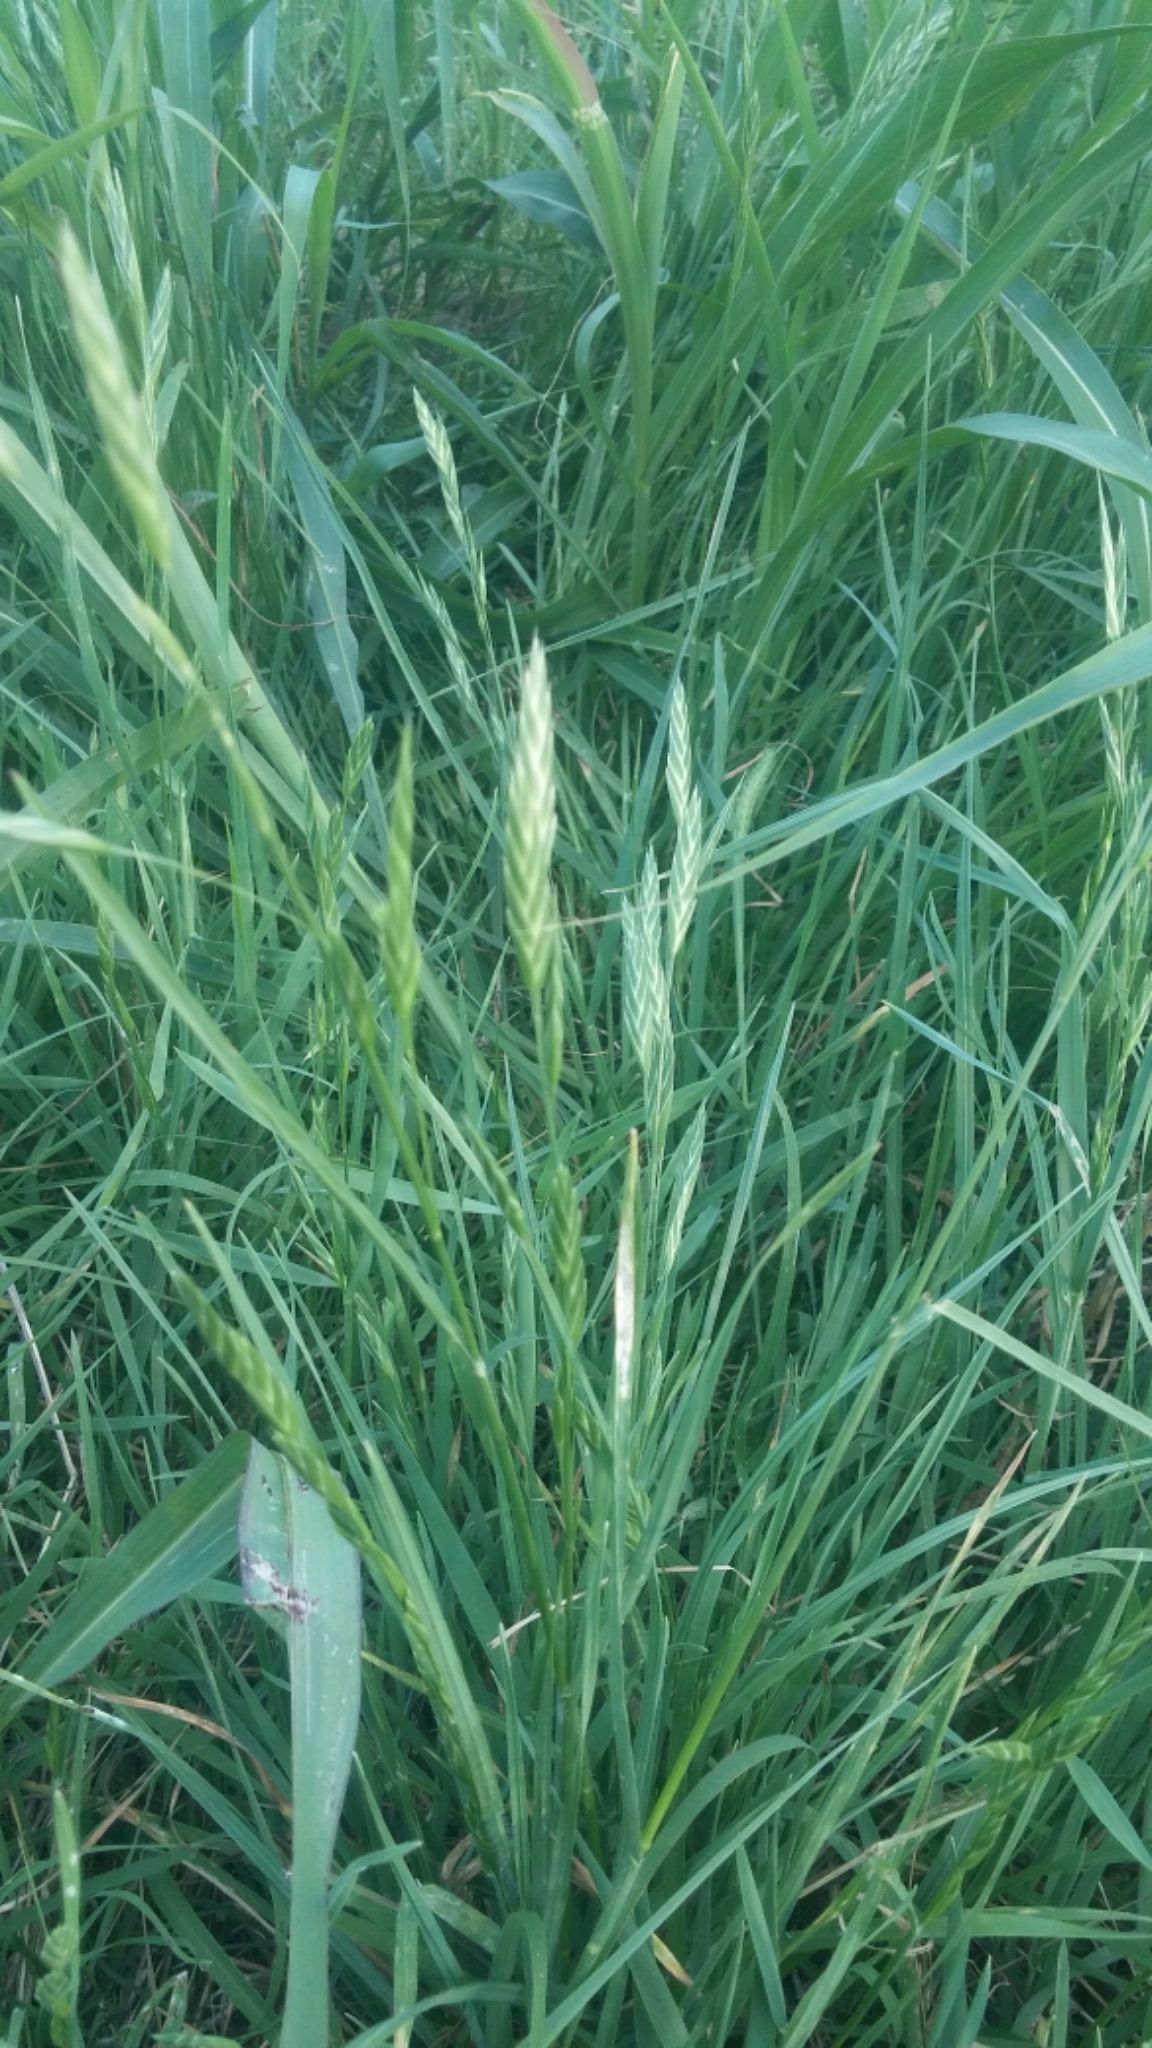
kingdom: Plantae
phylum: Tracheophyta
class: Liliopsida
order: Poales
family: Poaceae
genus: Bromus
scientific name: Bromus catharticus
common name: Rescuegrass
